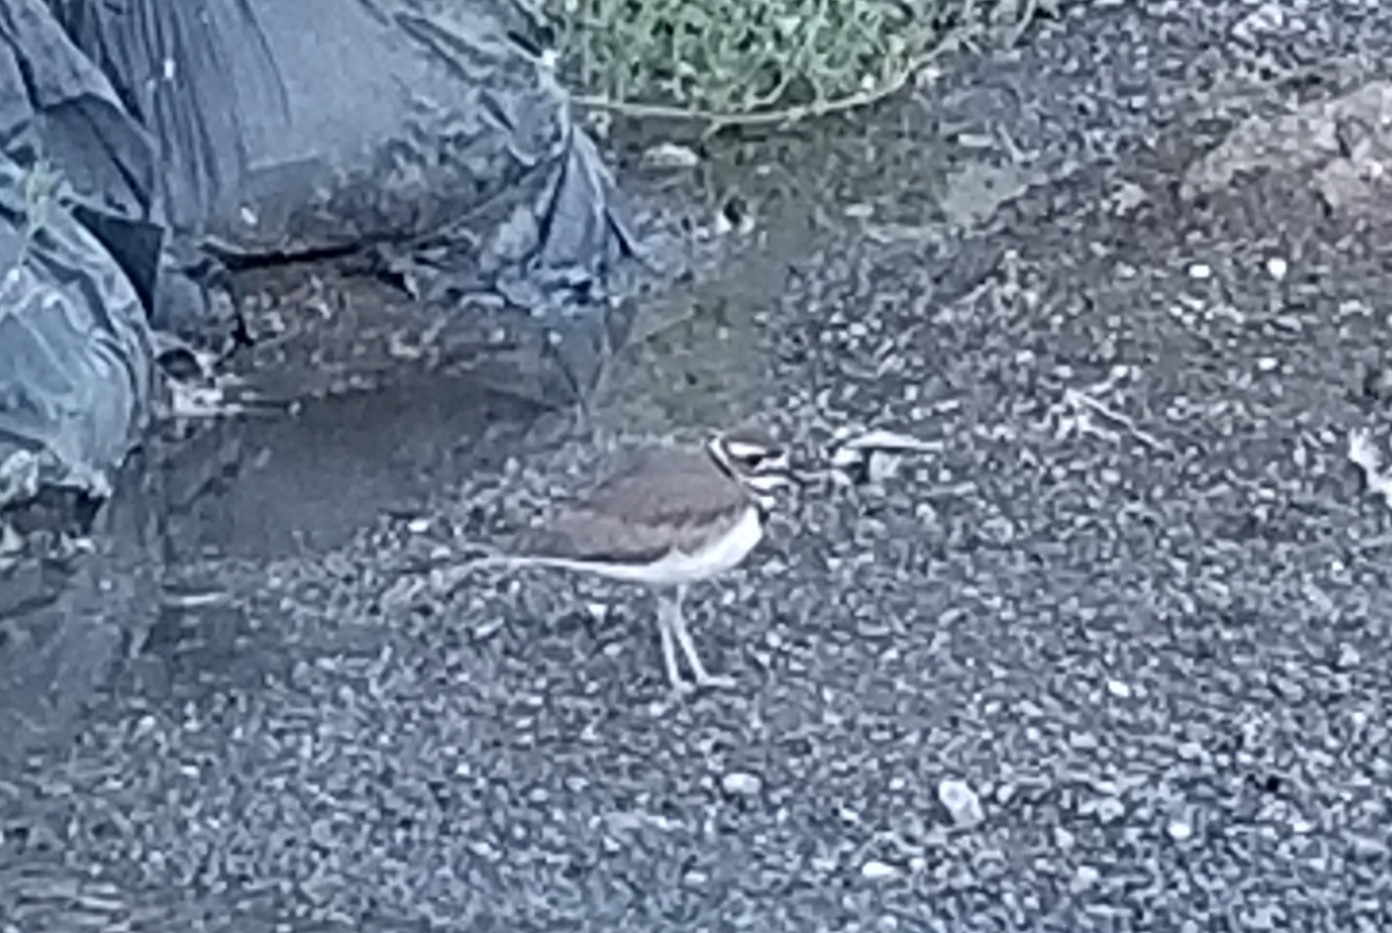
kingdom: Animalia
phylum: Chordata
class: Aves
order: Charadriiformes
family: Charadriidae
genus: Charadrius
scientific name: Charadrius vociferus
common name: Killdeer
